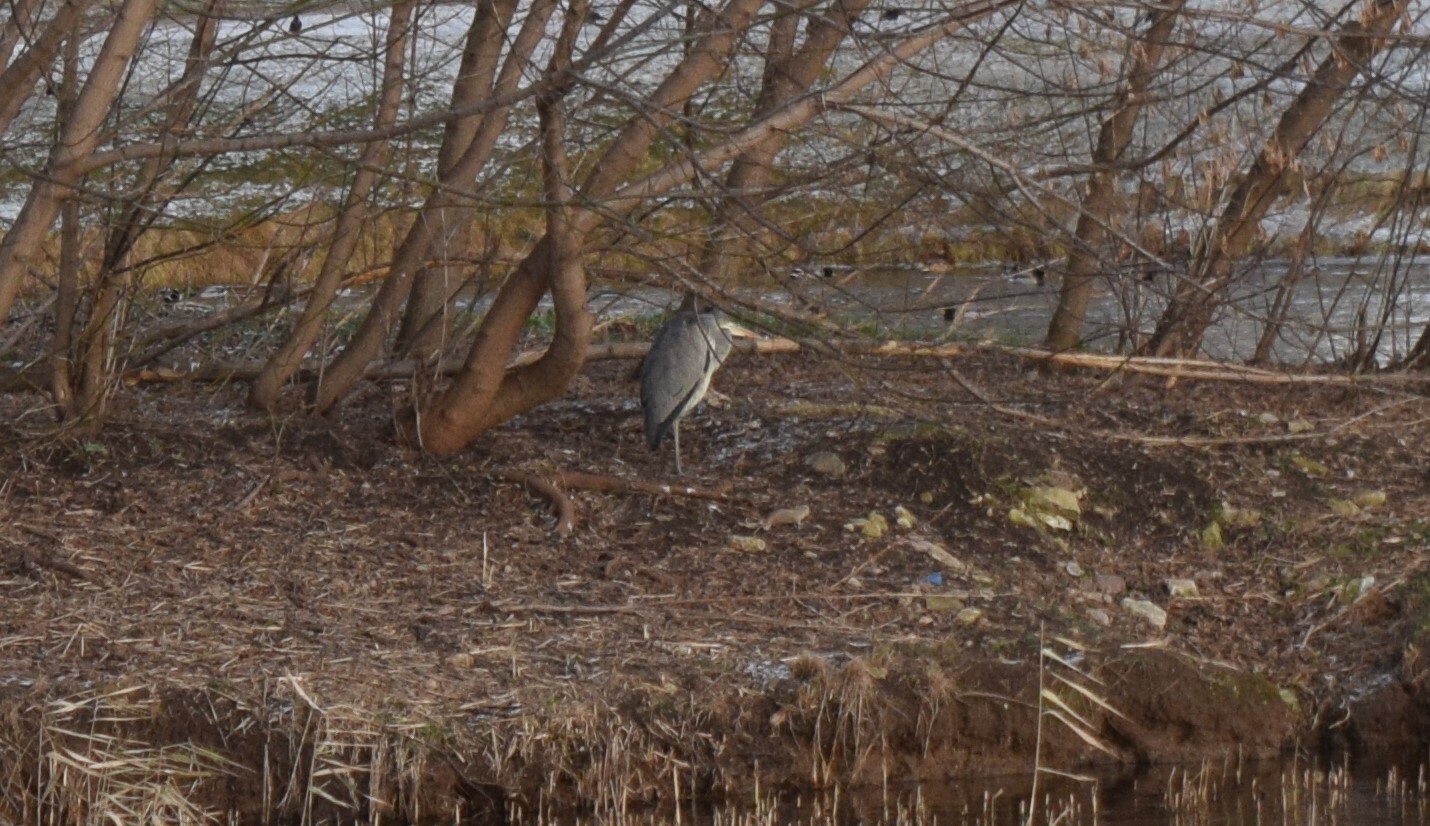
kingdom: Animalia
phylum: Chordata
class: Aves
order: Pelecaniformes
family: Ardeidae
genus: Ardea
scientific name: Ardea cinerea
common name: Grey heron
